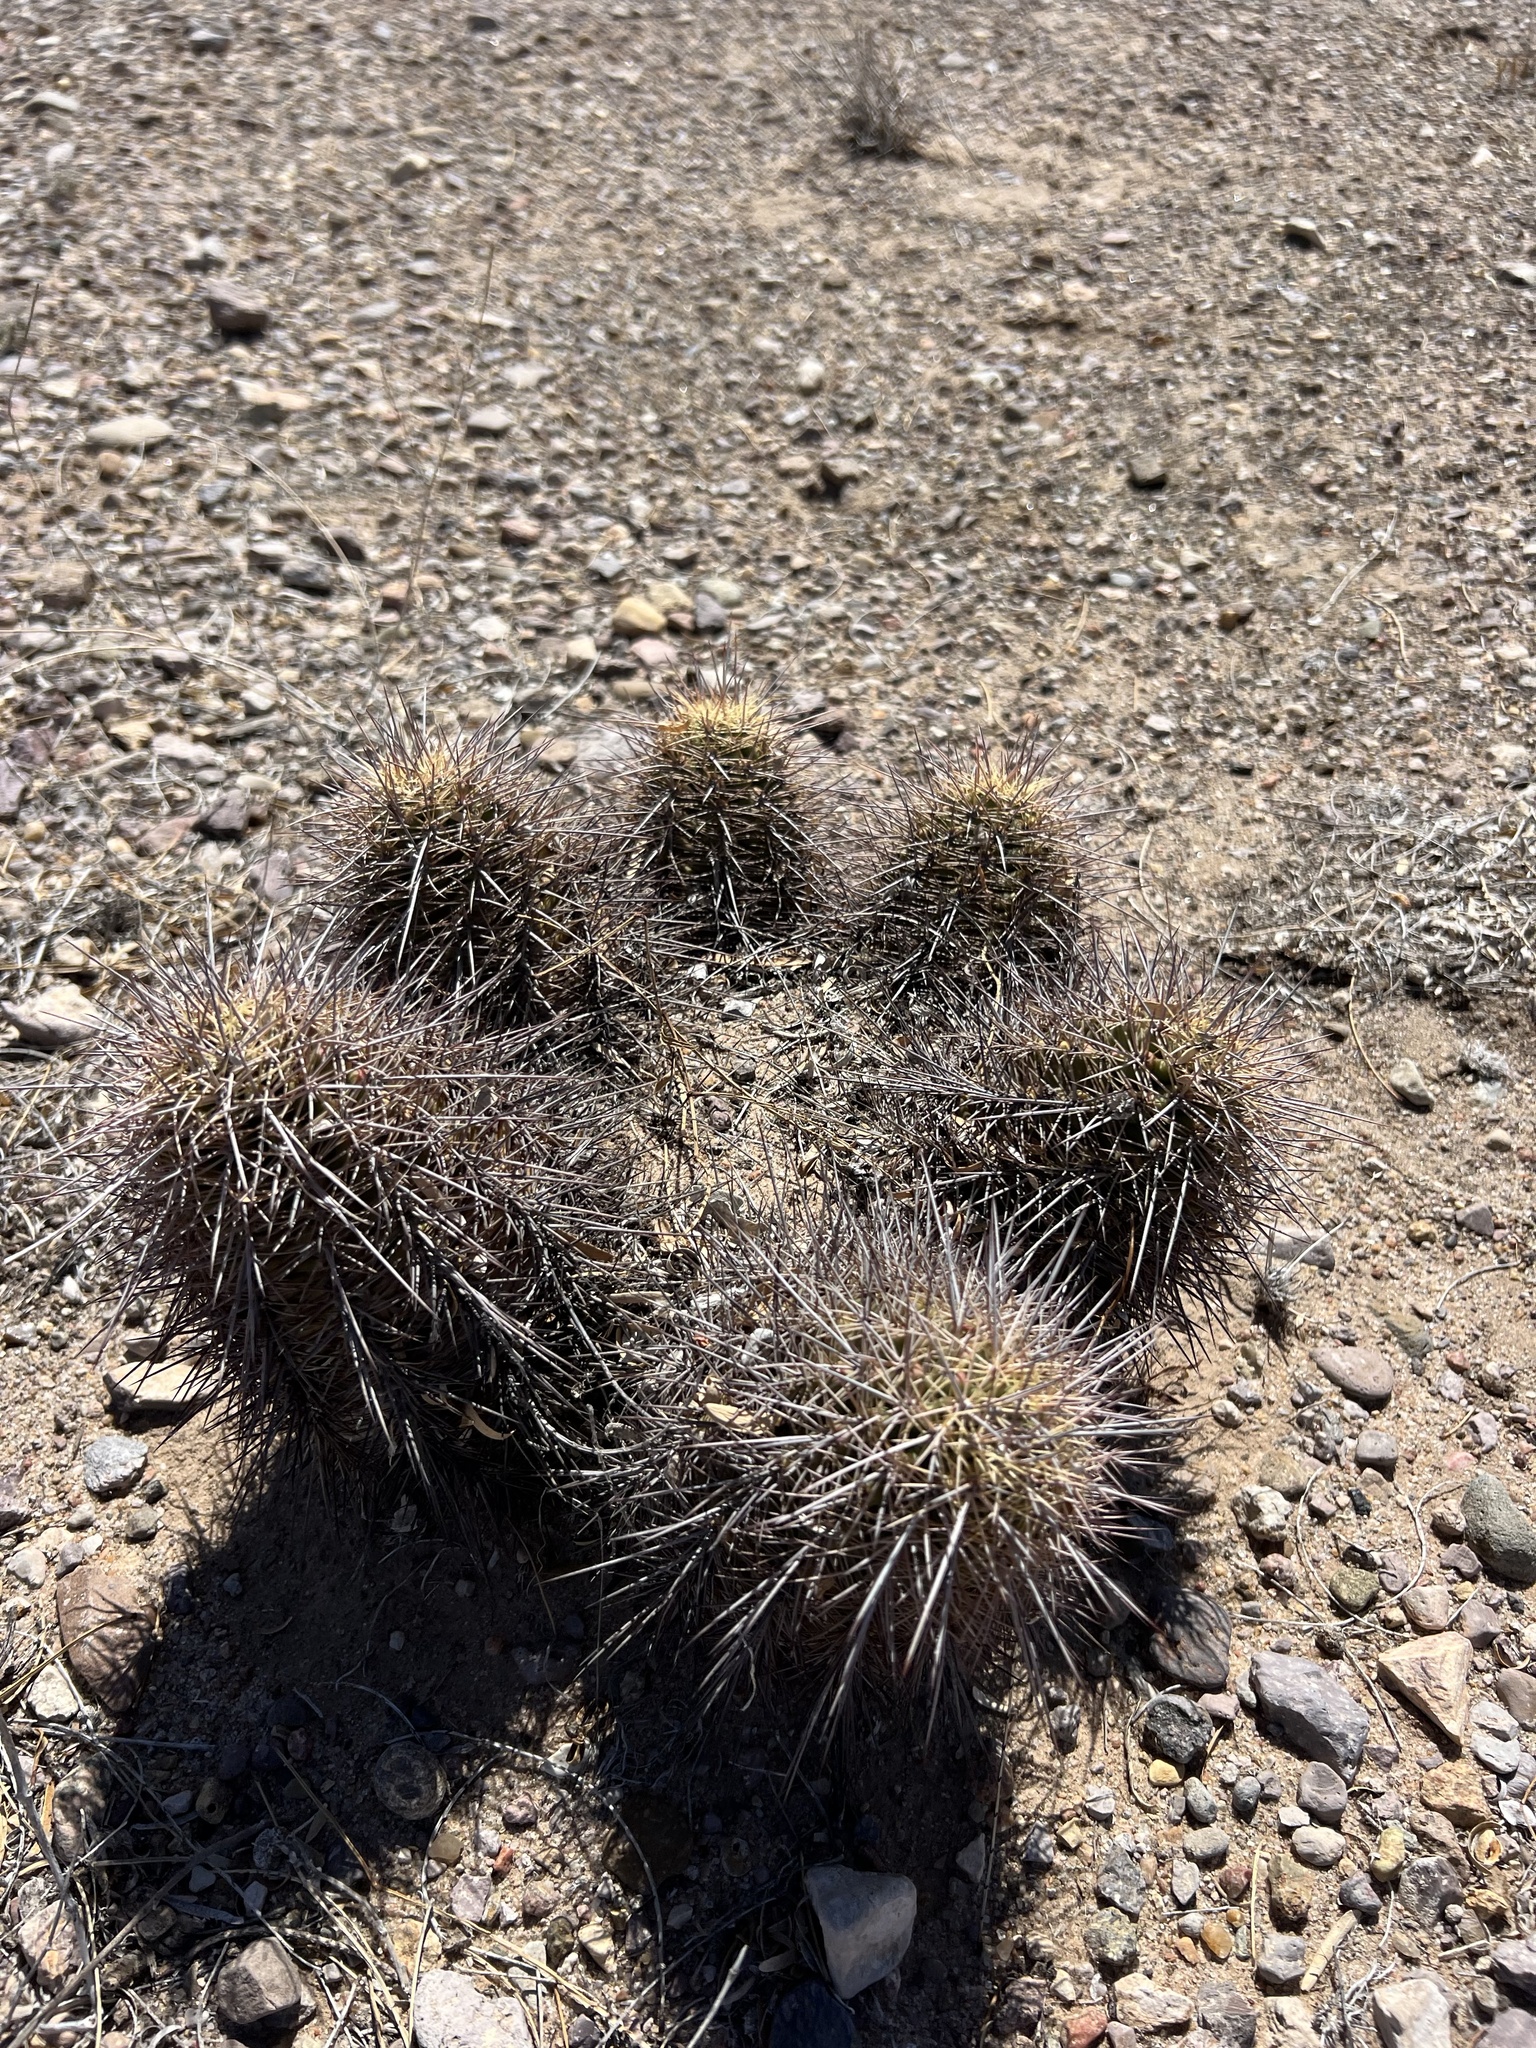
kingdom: Plantae
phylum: Tracheophyta
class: Magnoliopsida
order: Caryophyllales
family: Cactaceae
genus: Echinocereus
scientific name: Echinocereus coccineus
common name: Scarlet hedgehog cactus
